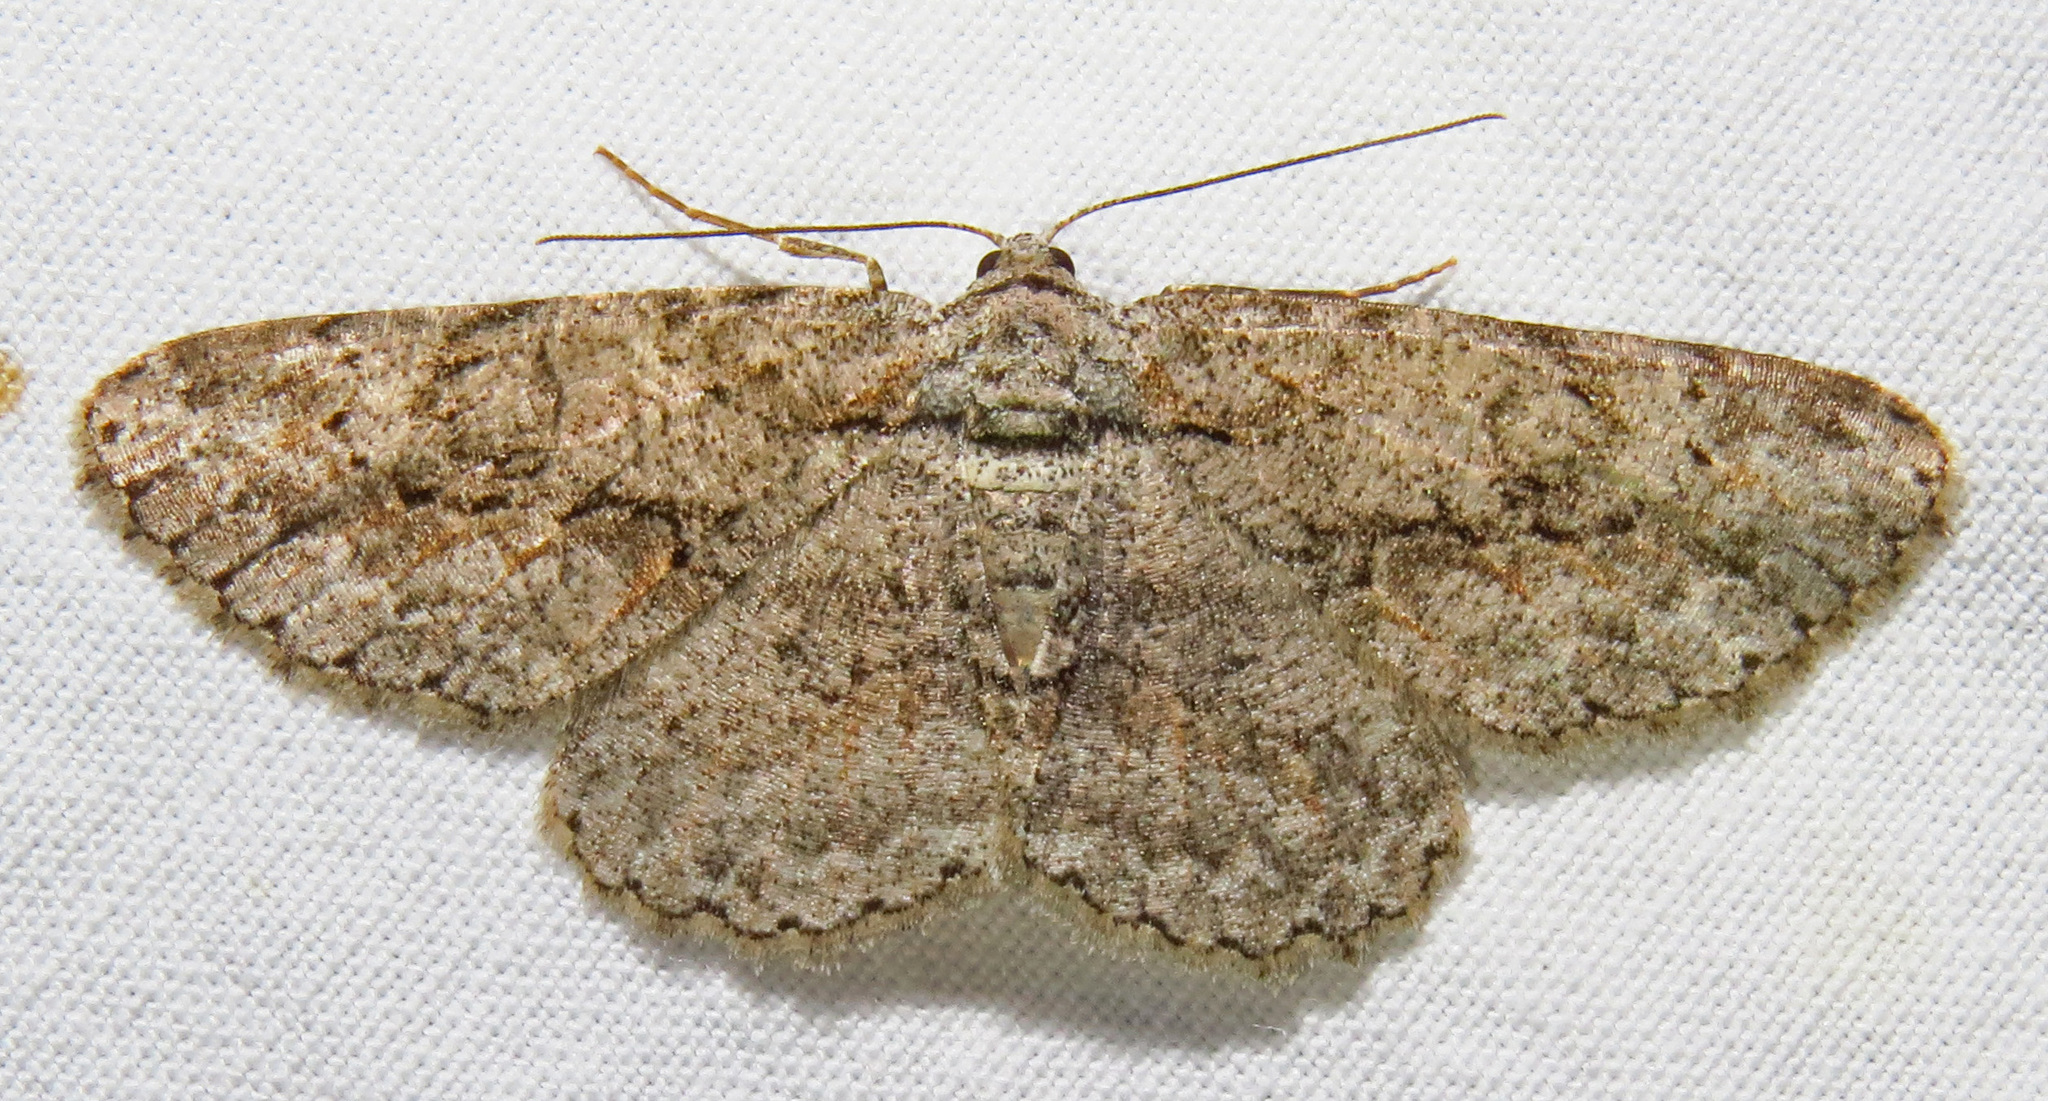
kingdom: Animalia
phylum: Arthropoda
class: Insecta
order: Lepidoptera
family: Geometridae
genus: Anavitrinella
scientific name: Anavitrinella pampinaria
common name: Common gray
